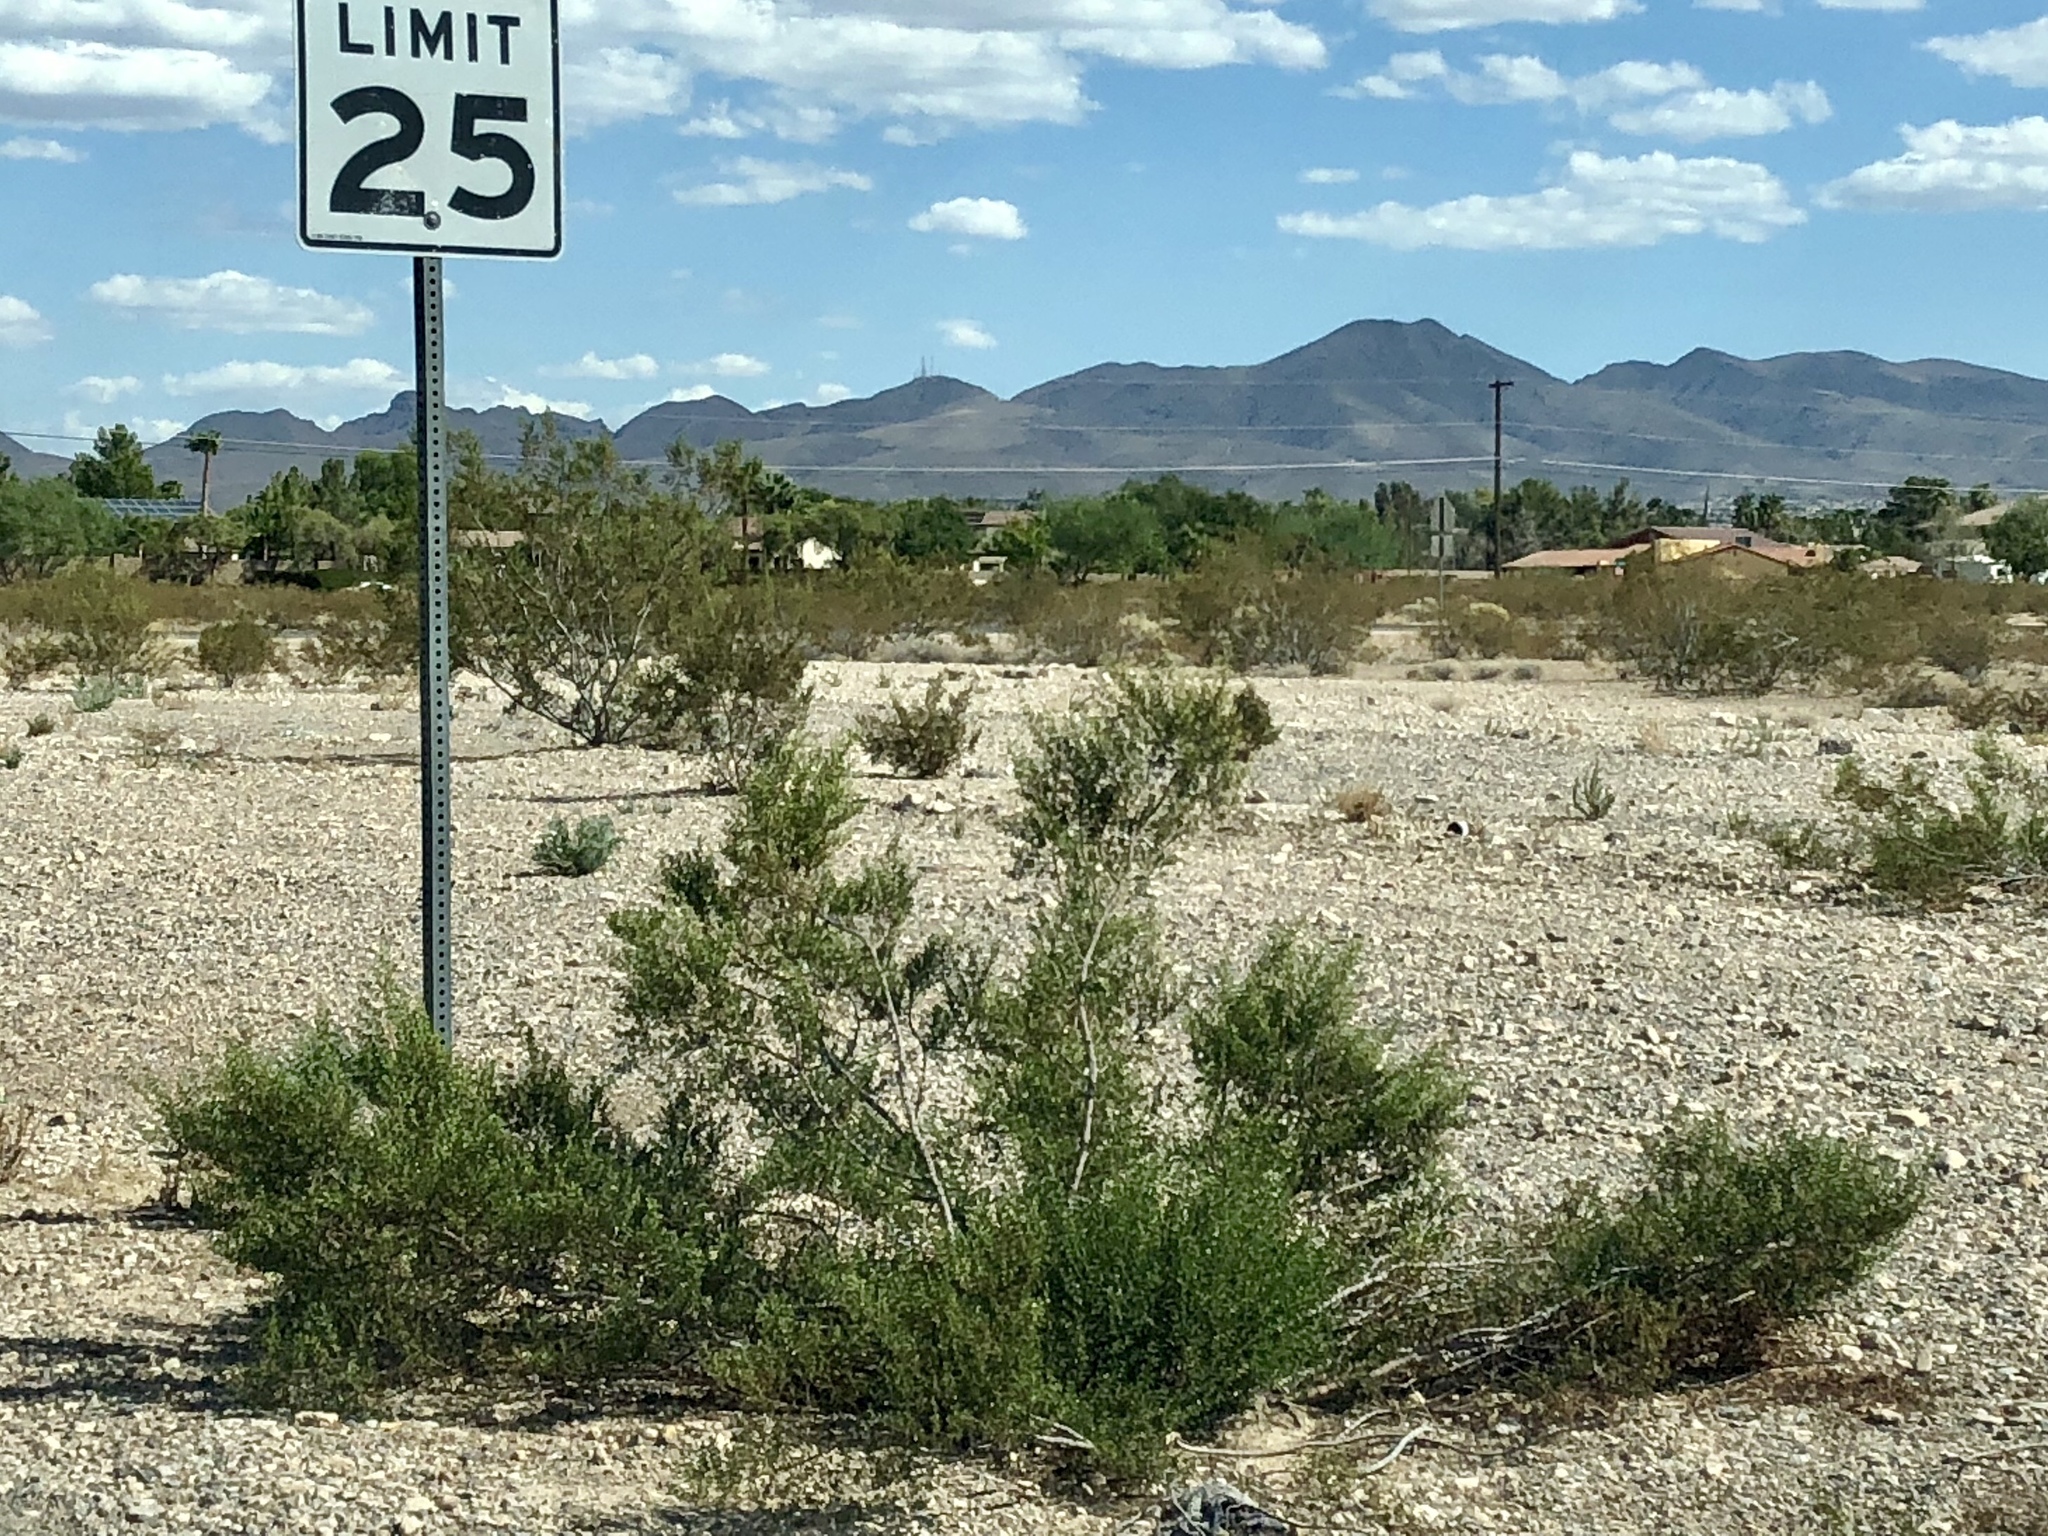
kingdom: Plantae
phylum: Tracheophyta
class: Magnoliopsida
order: Zygophyllales
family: Zygophyllaceae
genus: Larrea
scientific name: Larrea tridentata
